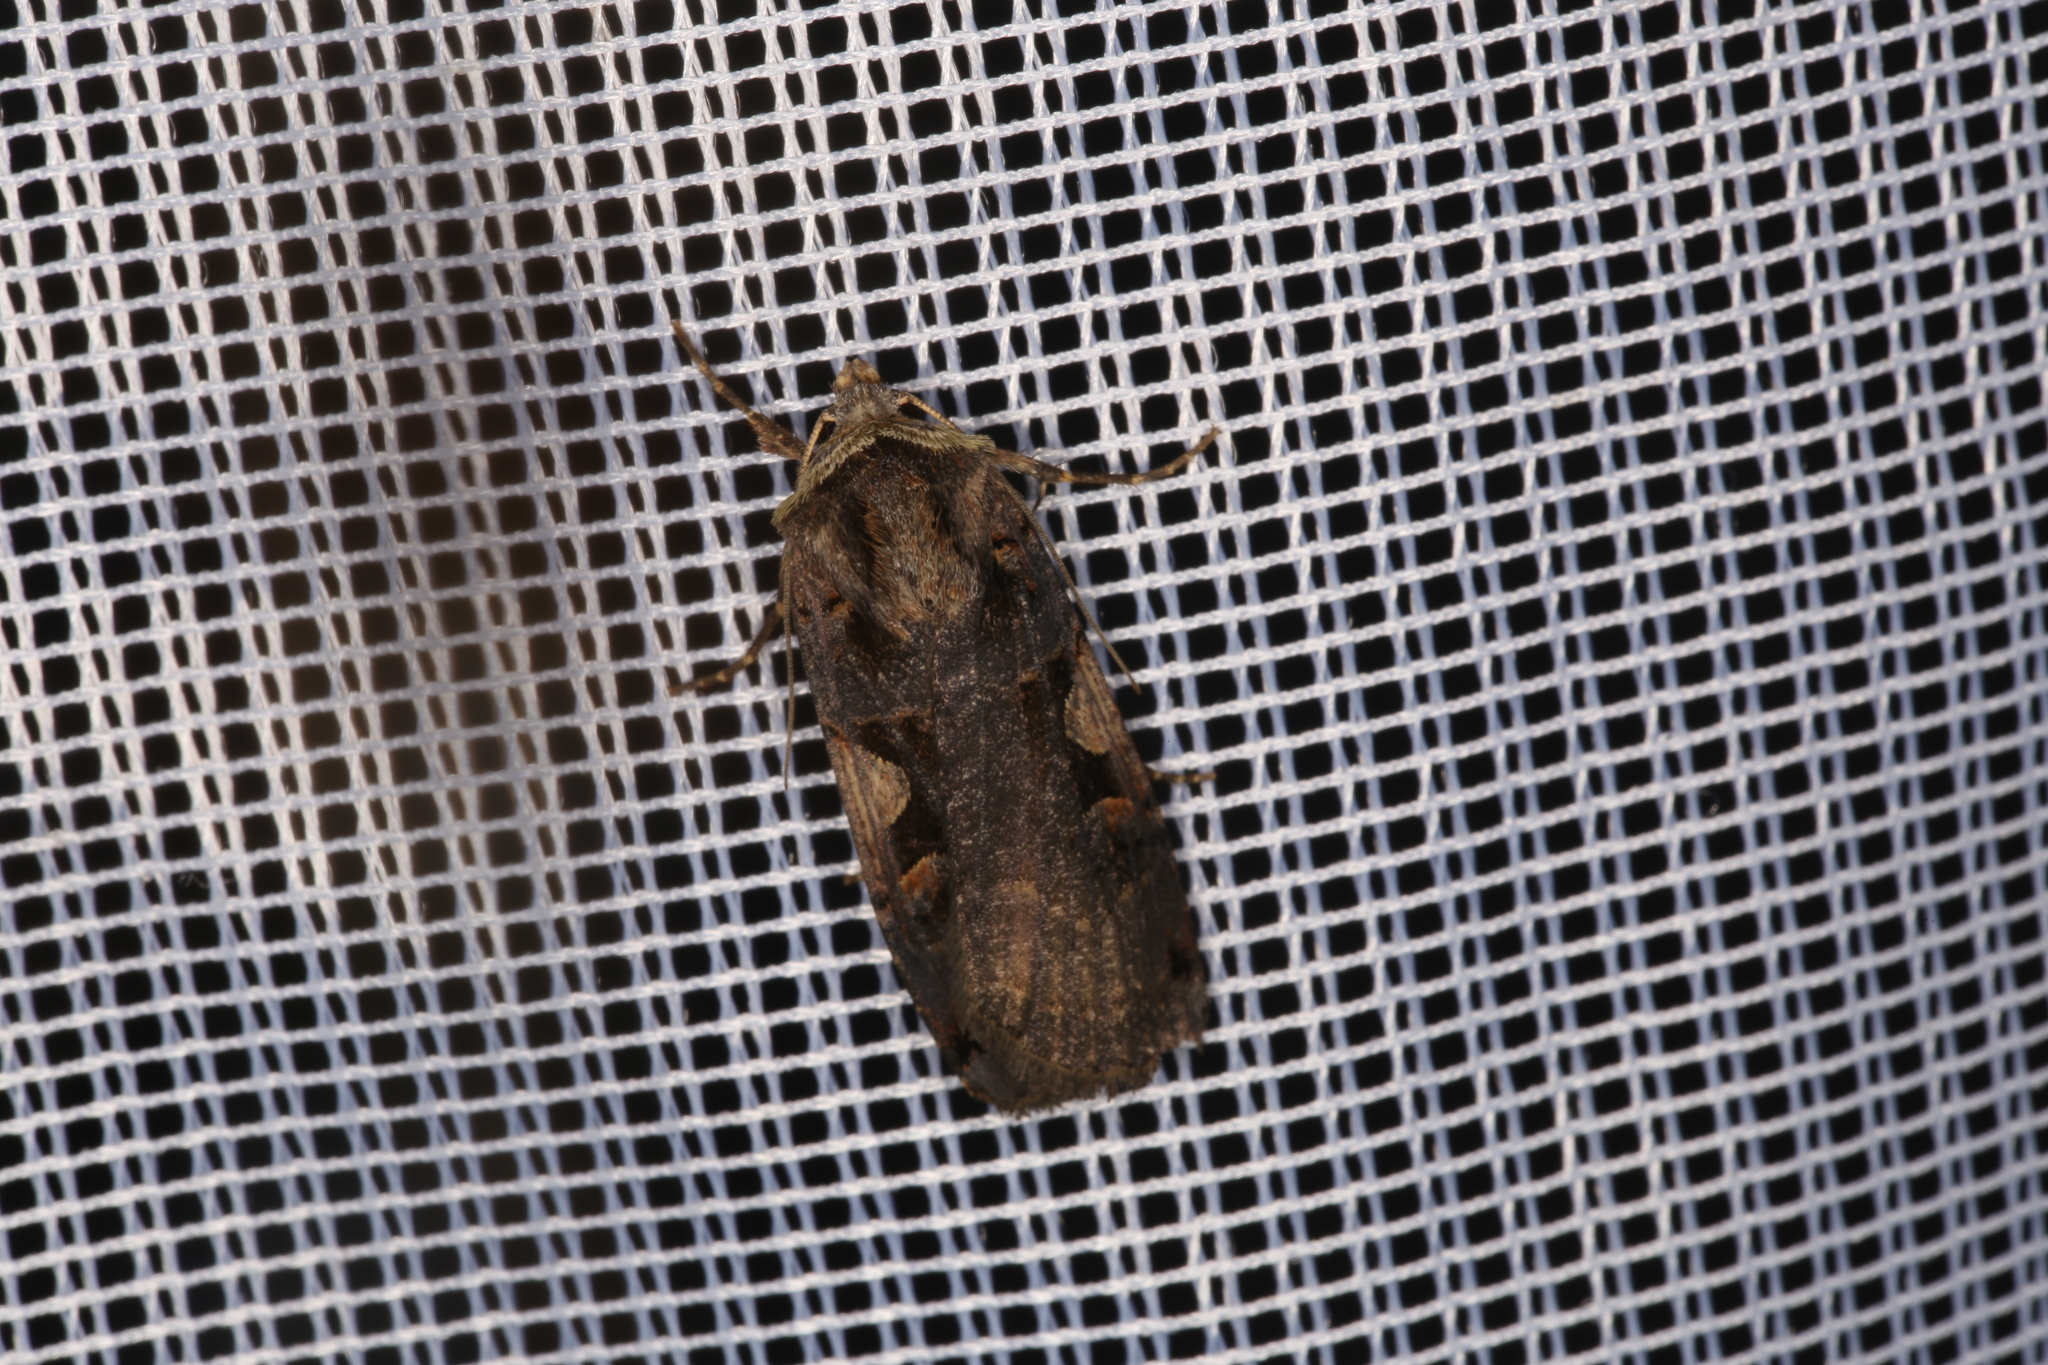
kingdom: Animalia
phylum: Arthropoda
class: Insecta
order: Lepidoptera
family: Noctuidae
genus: Xestia
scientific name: Xestia c-nigrum
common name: Setaceous hebrew character
